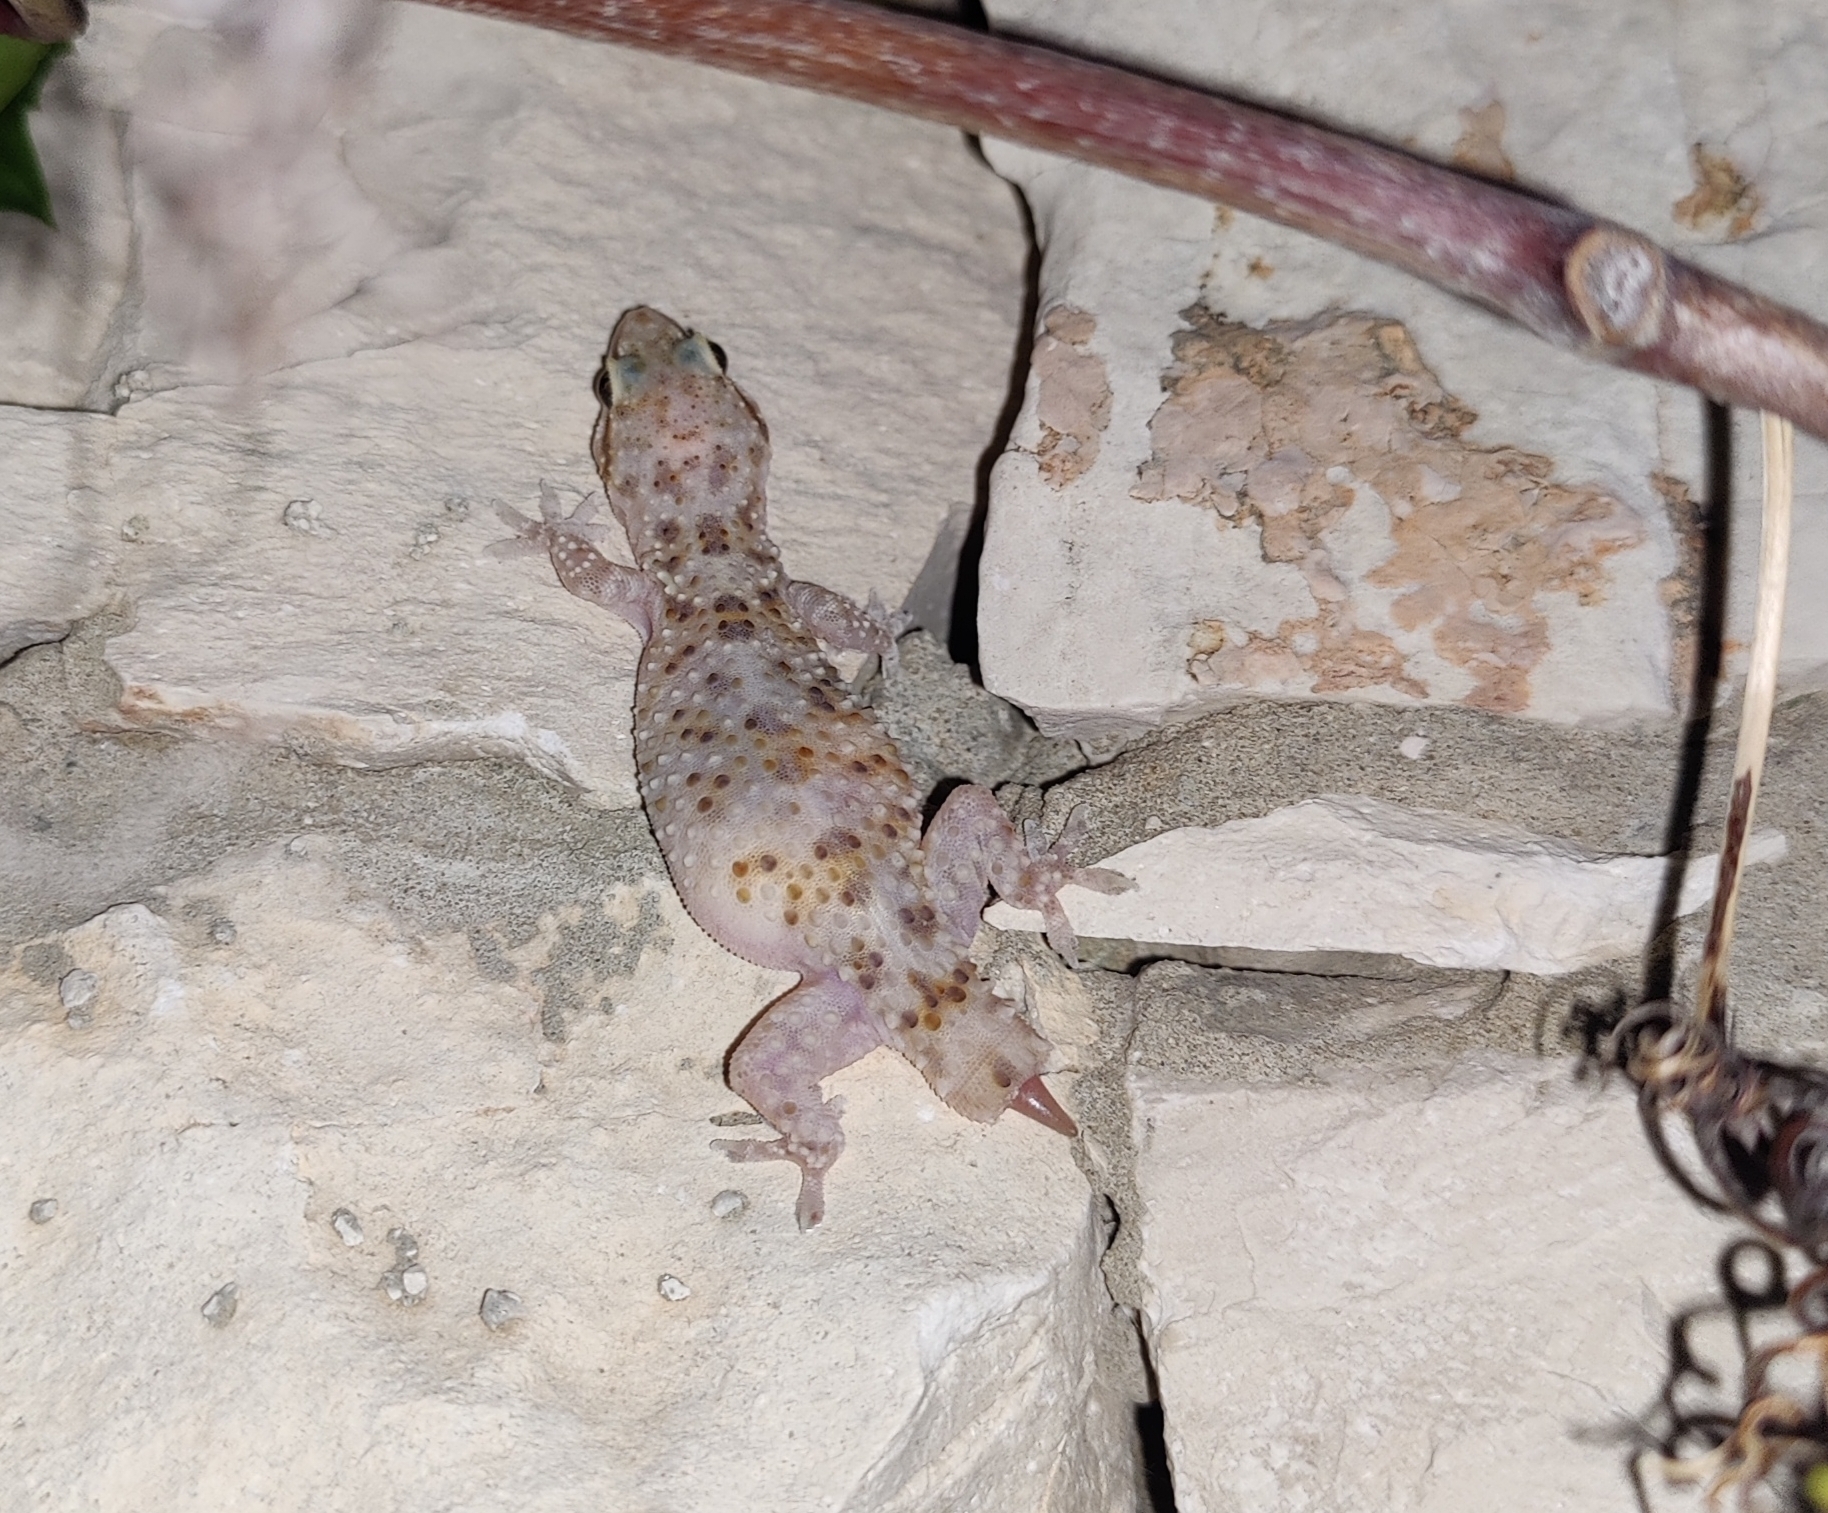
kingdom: Animalia
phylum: Chordata
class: Squamata
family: Gekkonidae
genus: Hemidactylus
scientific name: Hemidactylus turcicus
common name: Turkish gecko
